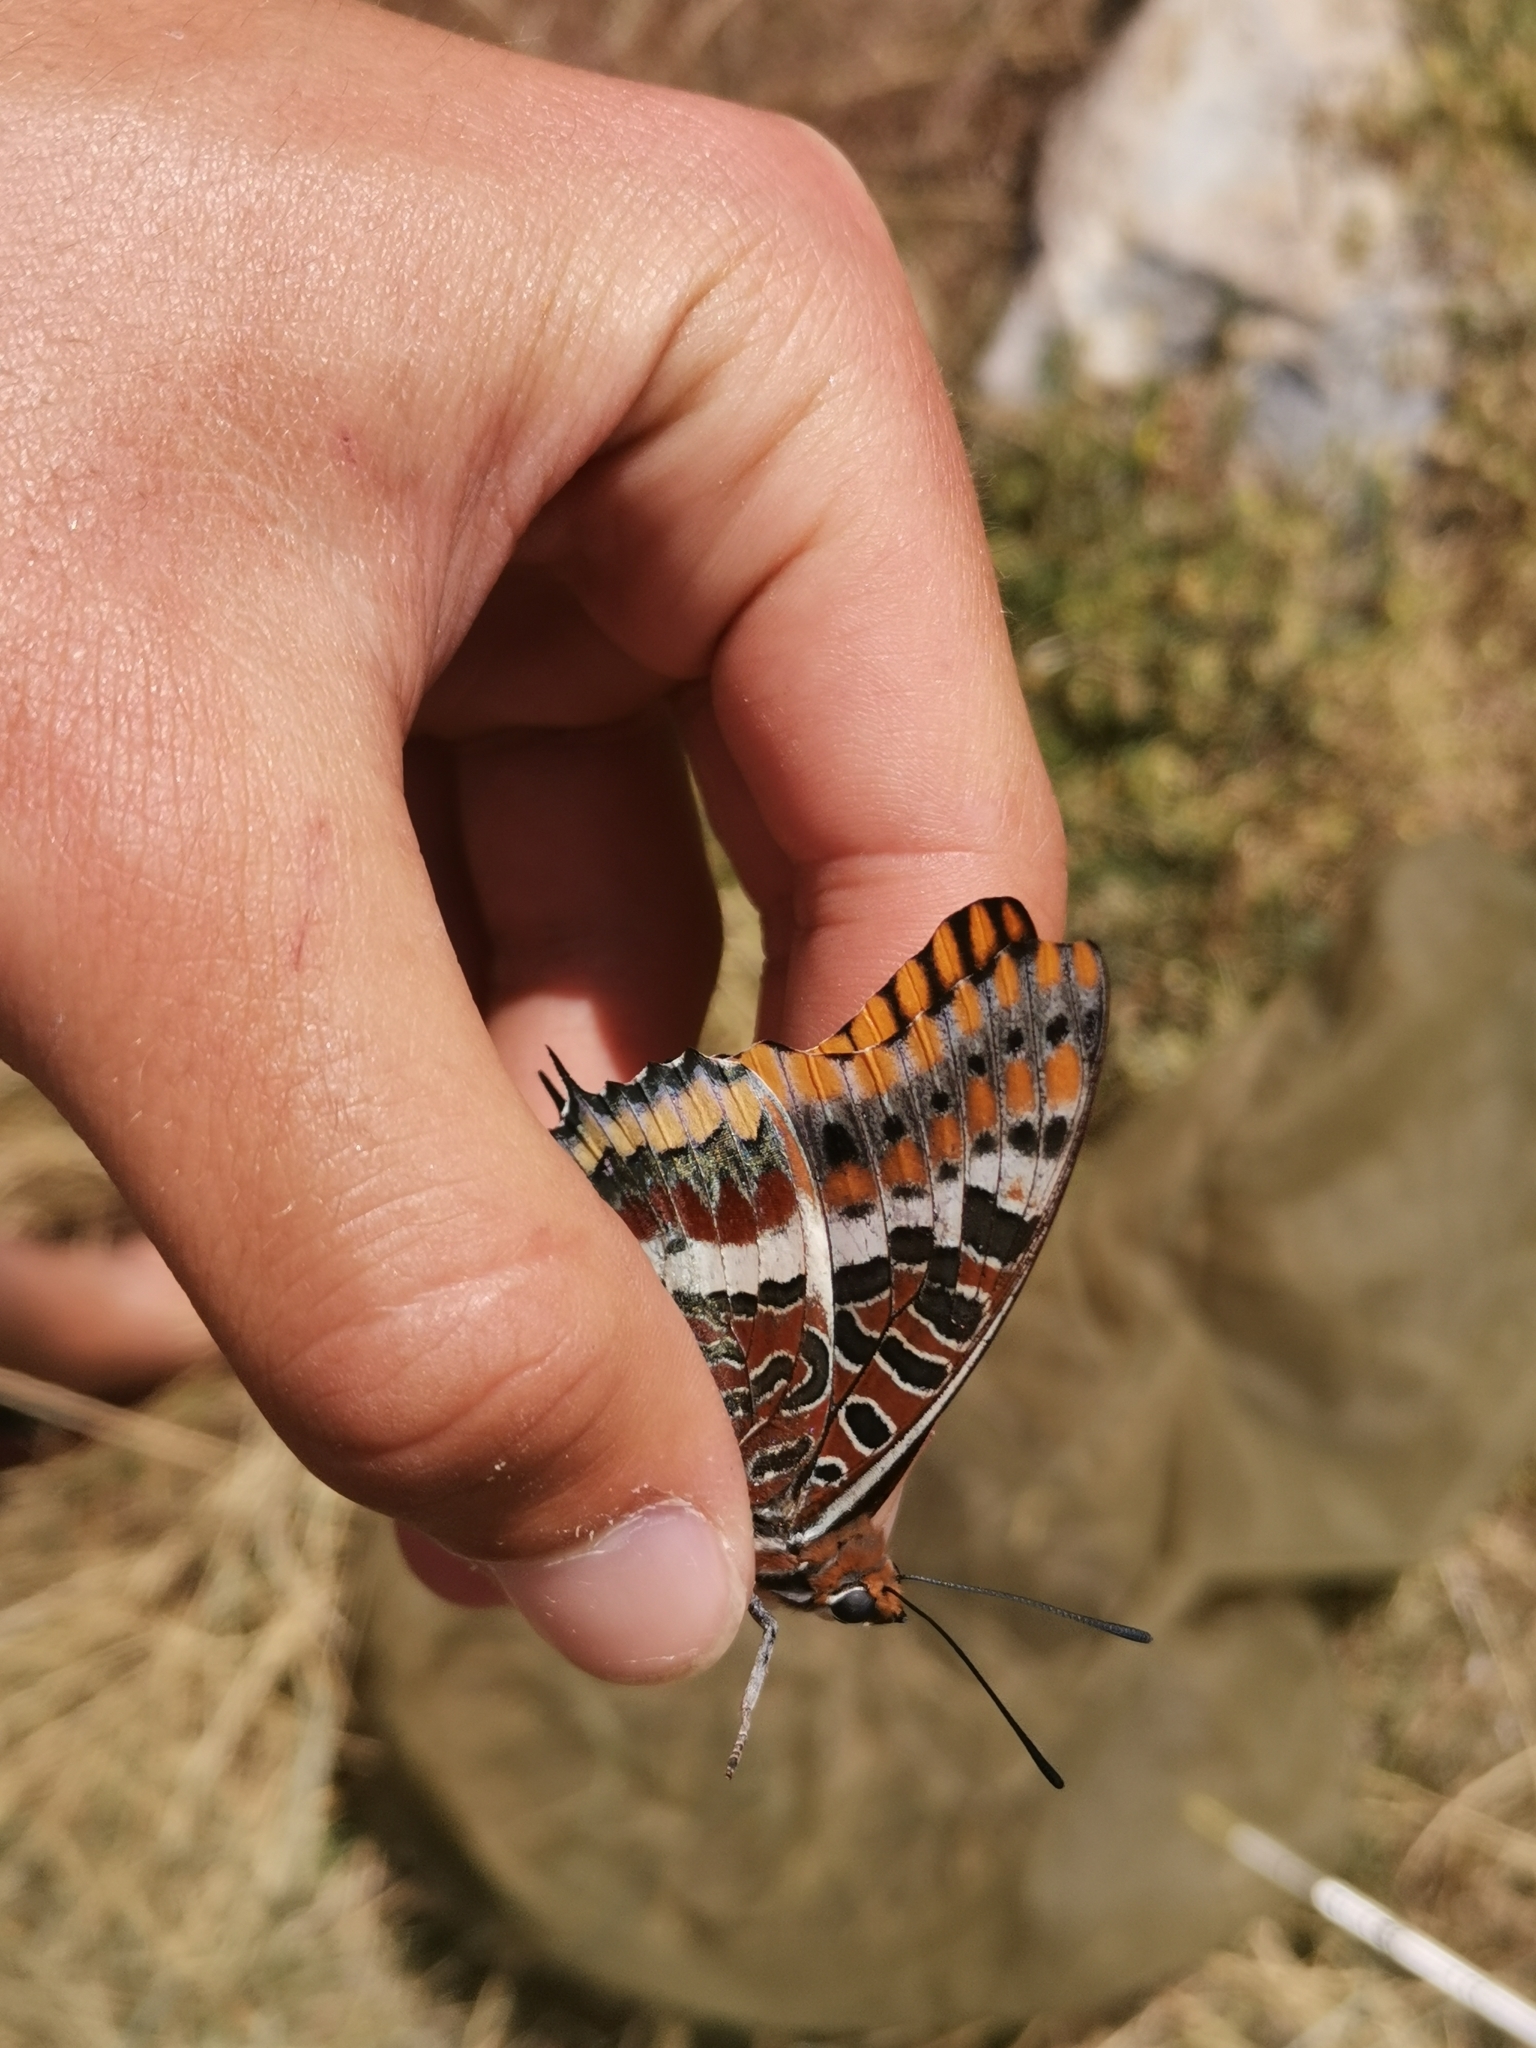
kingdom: Animalia
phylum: Arthropoda
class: Insecta
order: Lepidoptera
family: Nymphalidae
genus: Charaxes
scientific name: Charaxes jasius
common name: Two tailed pasha
